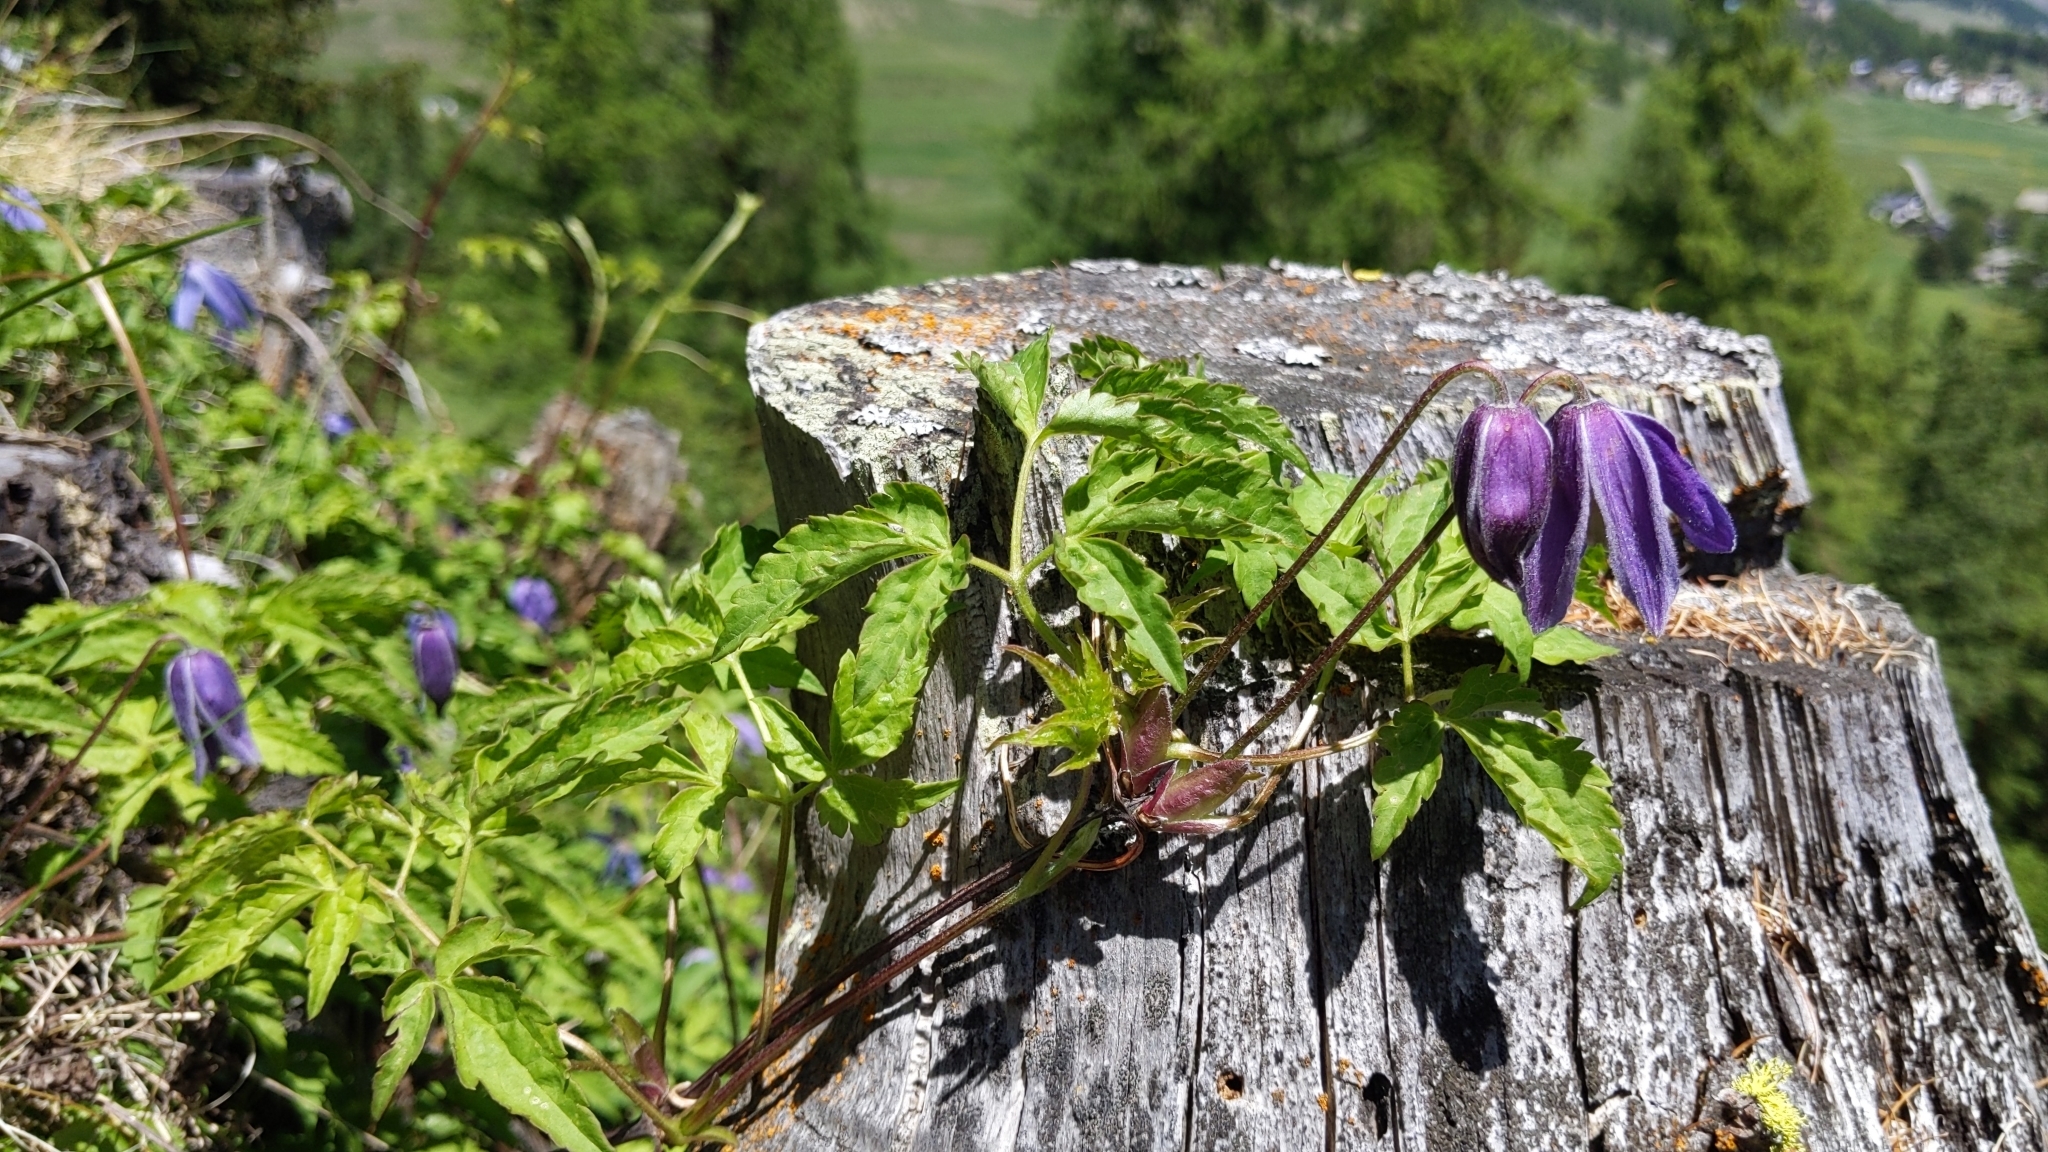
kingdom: Plantae
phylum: Tracheophyta
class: Magnoliopsida
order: Ranunculales
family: Ranunculaceae
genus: Clematis
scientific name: Clematis alpina
